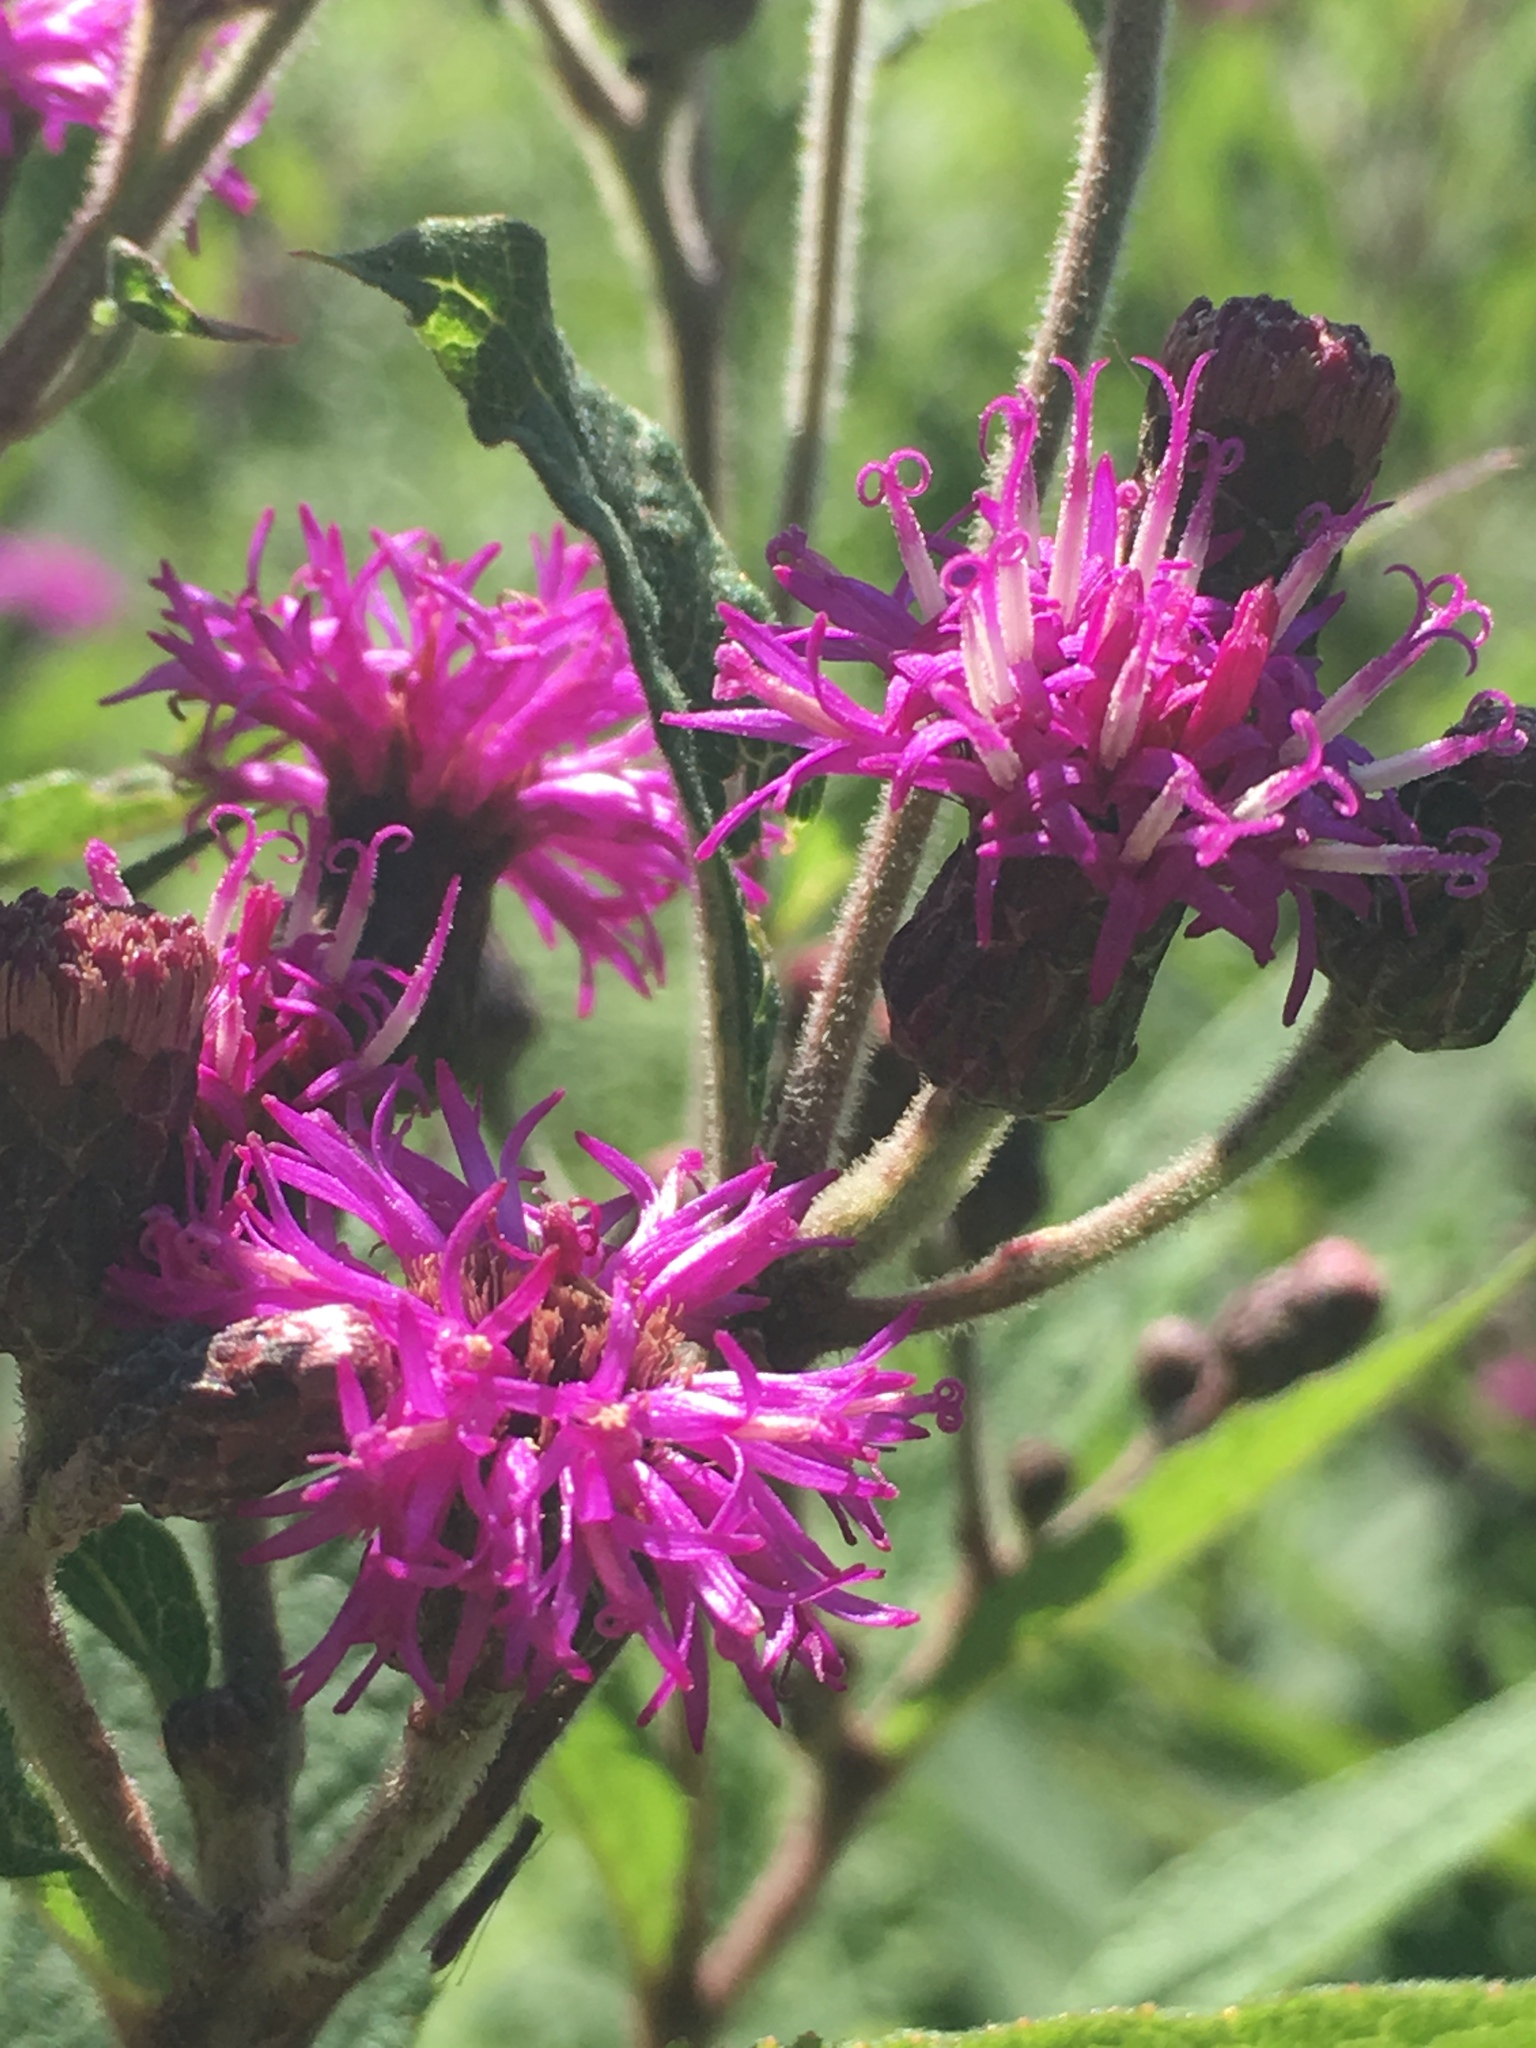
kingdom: Plantae
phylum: Tracheophyta
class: Magnoliopsida
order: Asterales
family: Asteraceae
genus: Vernonia
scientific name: Vernonia missurica
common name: Missouri ironweed
